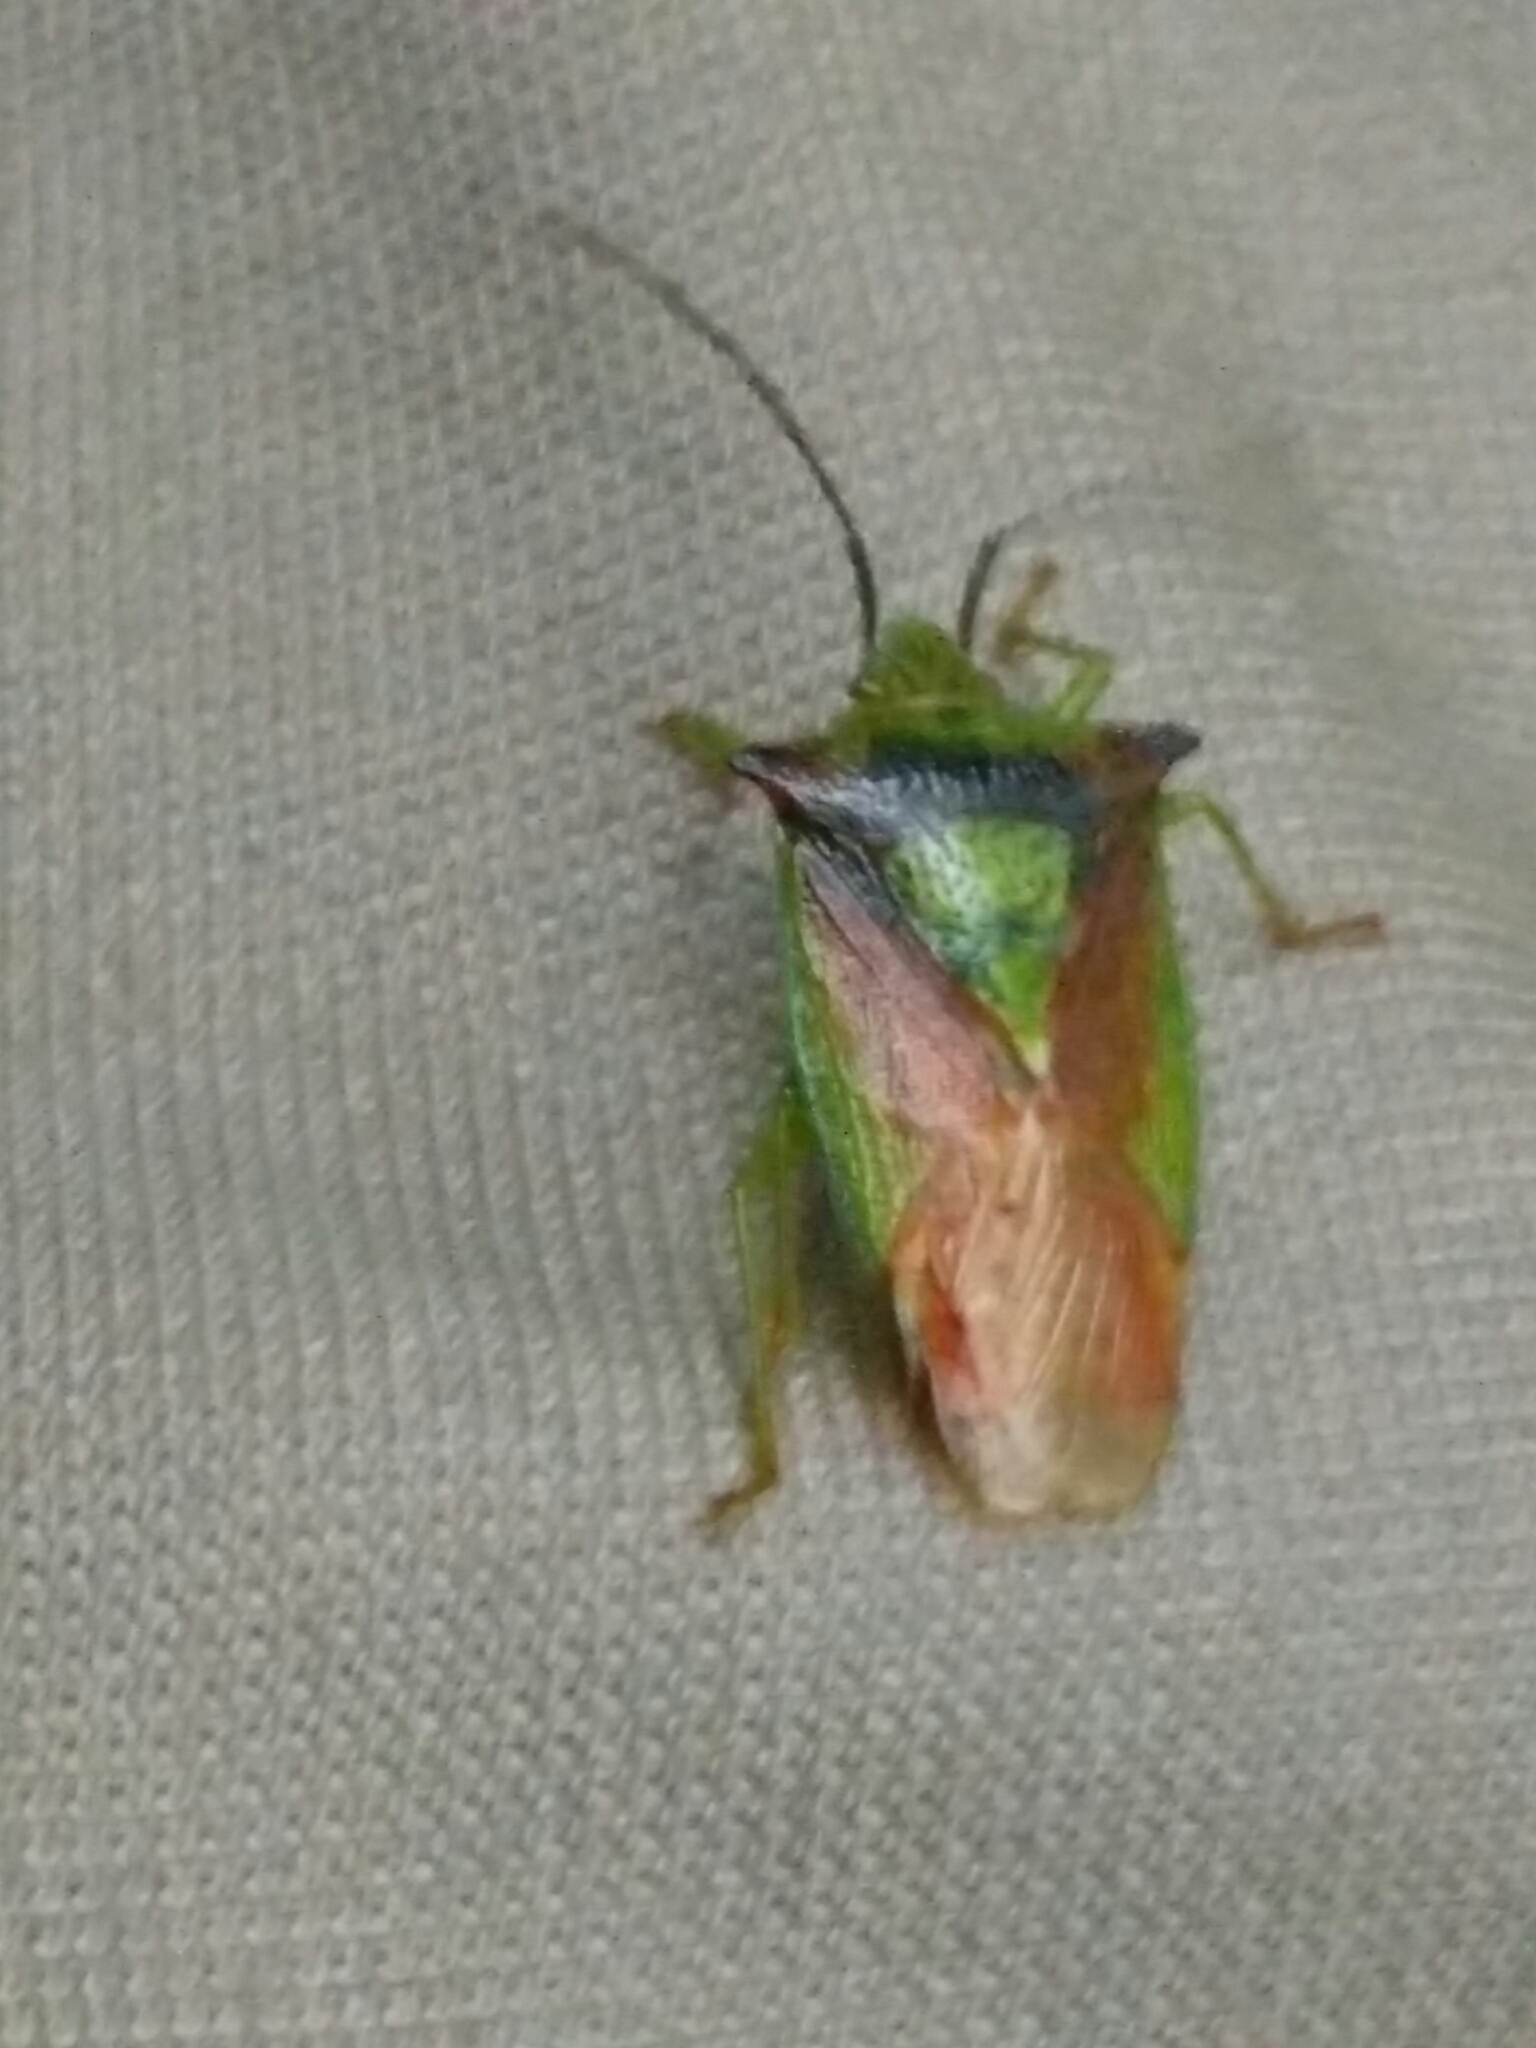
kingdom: Animalia
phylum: Arthropoda
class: Insecta
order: Hemiptera
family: Acanthosomatidae
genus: Acanthosoma
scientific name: Acanthosoma haemorrhoidale
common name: Hawthorn shieldbug
